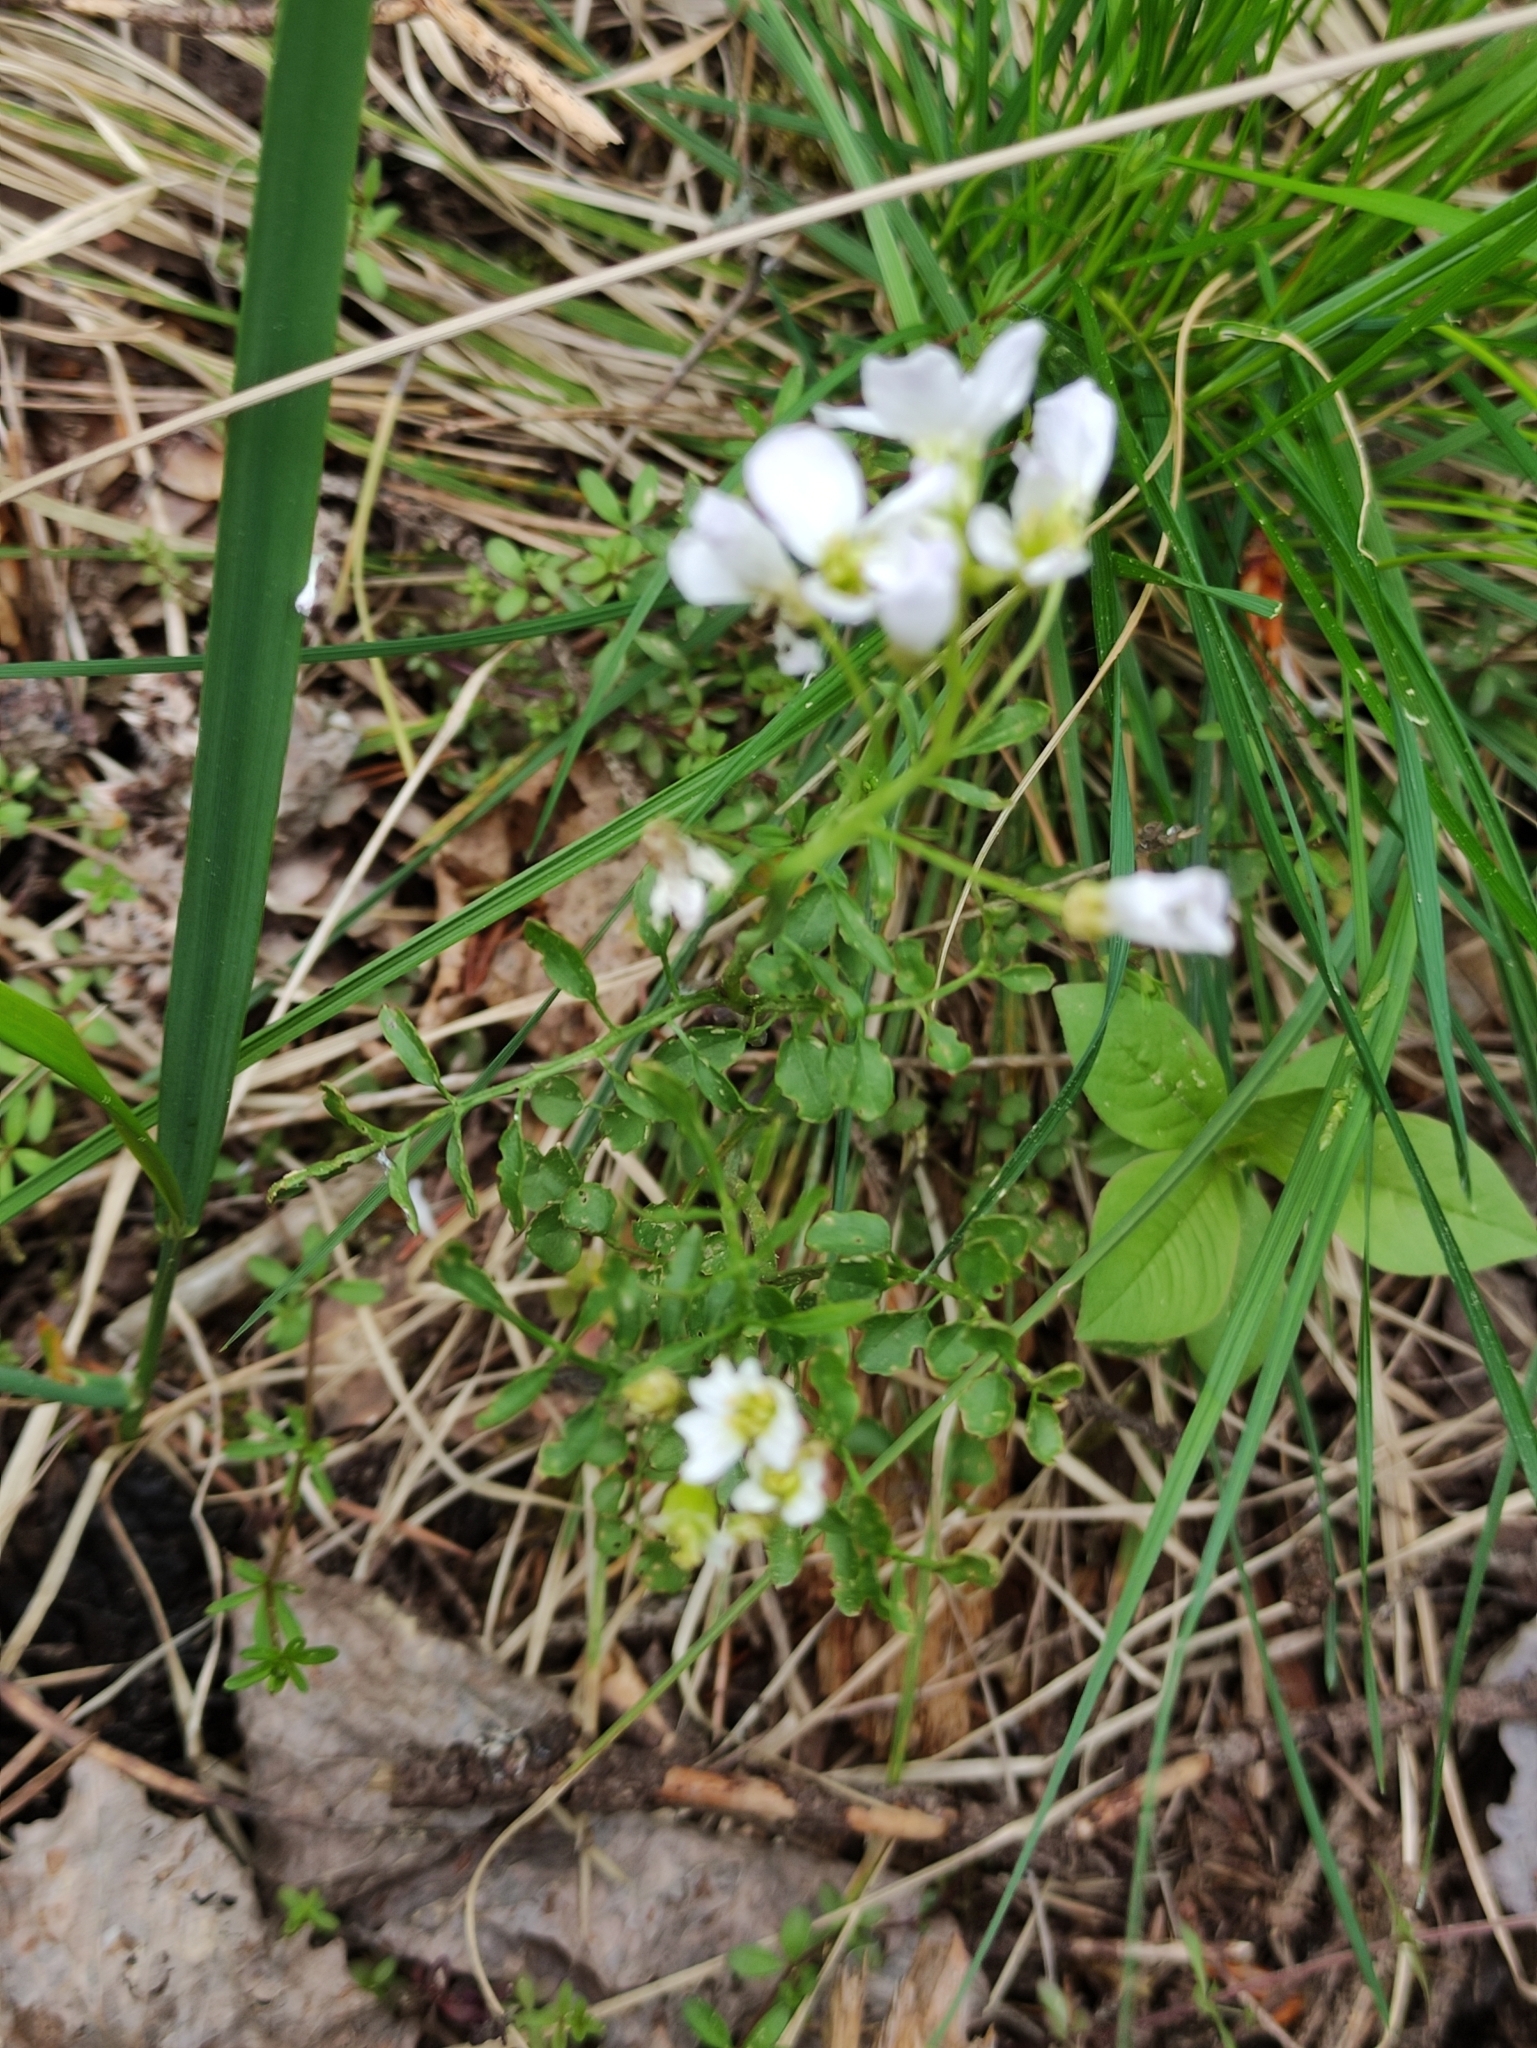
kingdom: Plantae
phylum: Tracheophyta
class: Magnoliopsida
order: Brassicales
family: Brassicaceae
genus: Cardamine
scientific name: Cardamine dentata
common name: Toothed bittercress
